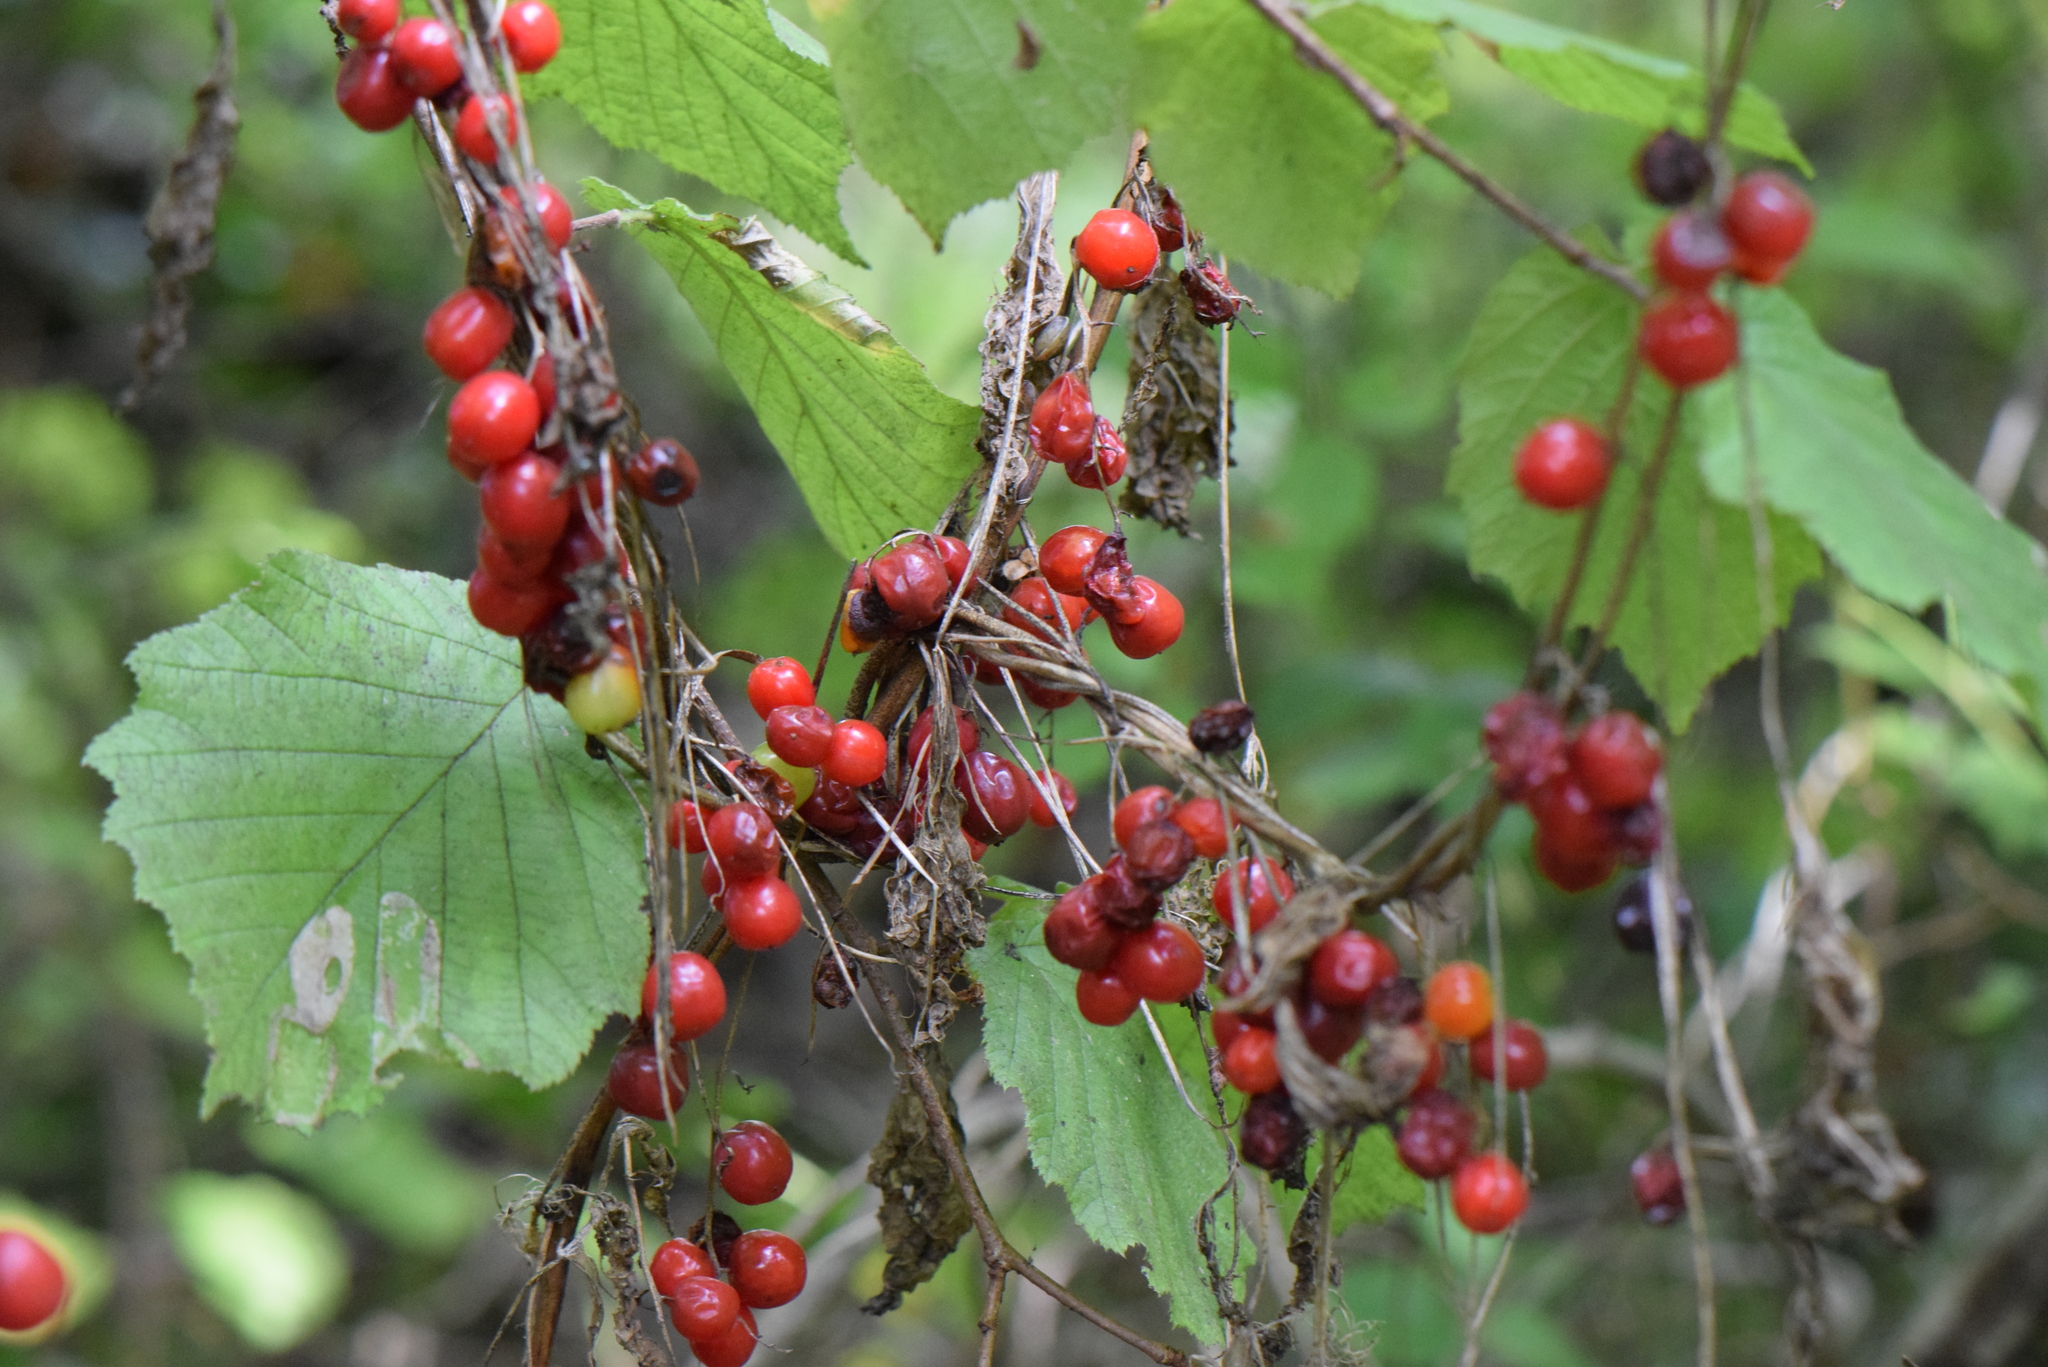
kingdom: Plantae
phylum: Tracheophyta
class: Liliopsida
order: Dioscoreales
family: Dioscoreaceae
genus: Dioscorea
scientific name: Dioscorea communis
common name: Black-bindweed
